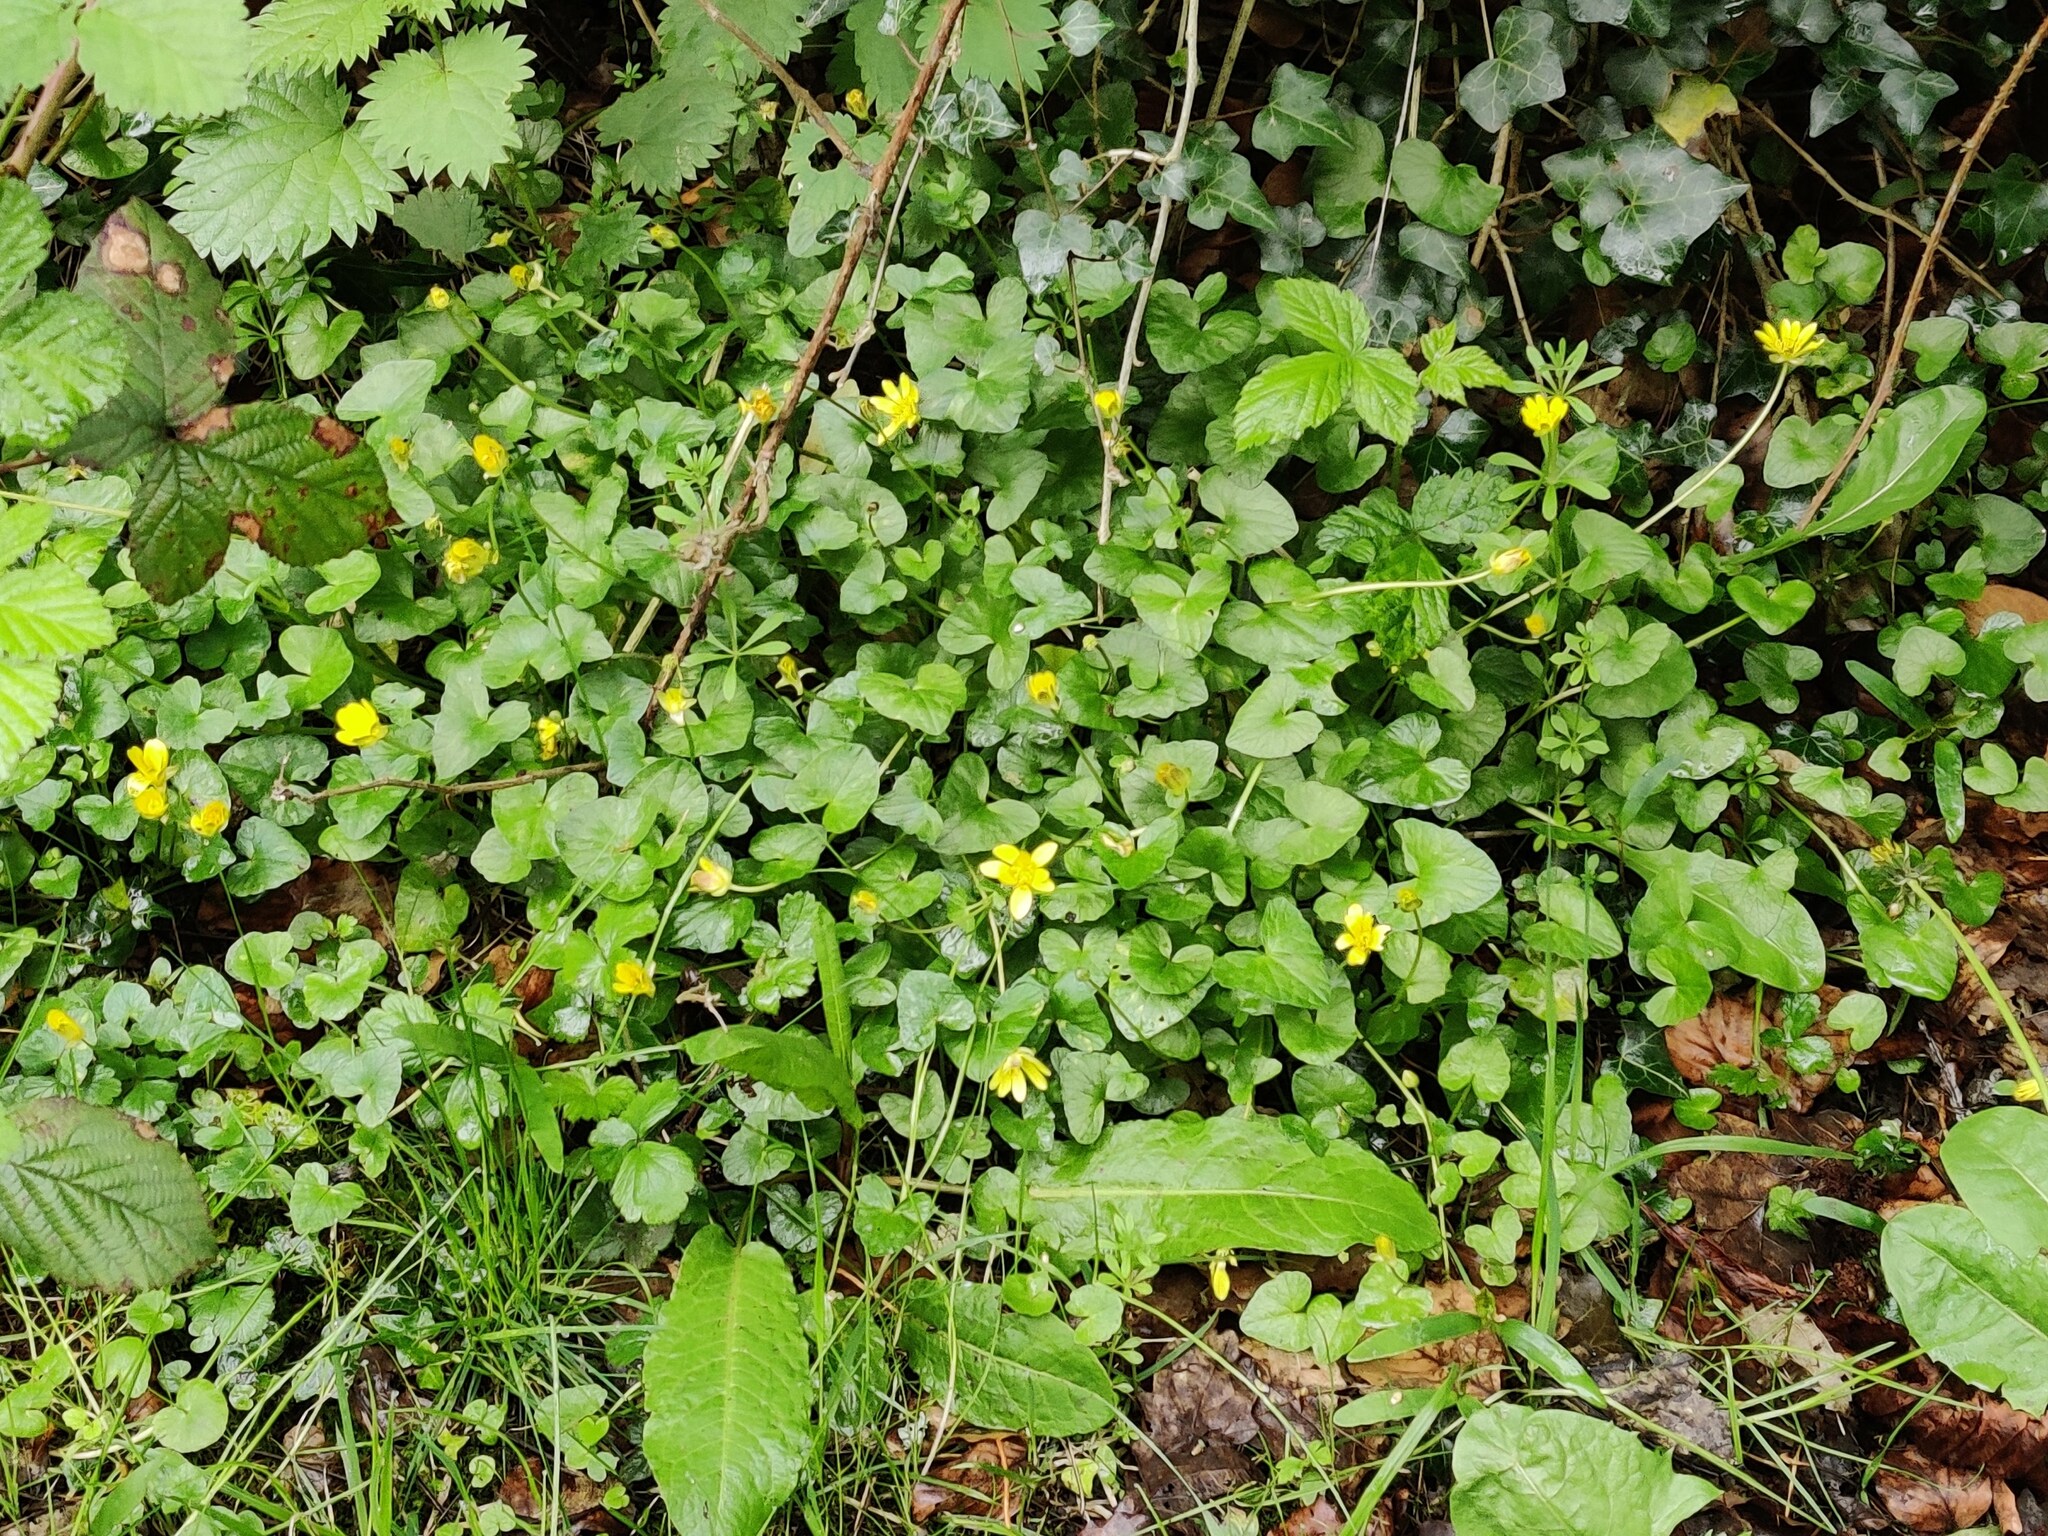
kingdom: Plantae
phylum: Tracheophyta
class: Magnoliopsida
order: Ranunculales
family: Ranunculaceae
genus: Ficaria
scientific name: Ficaria verna
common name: Lesser celandine
